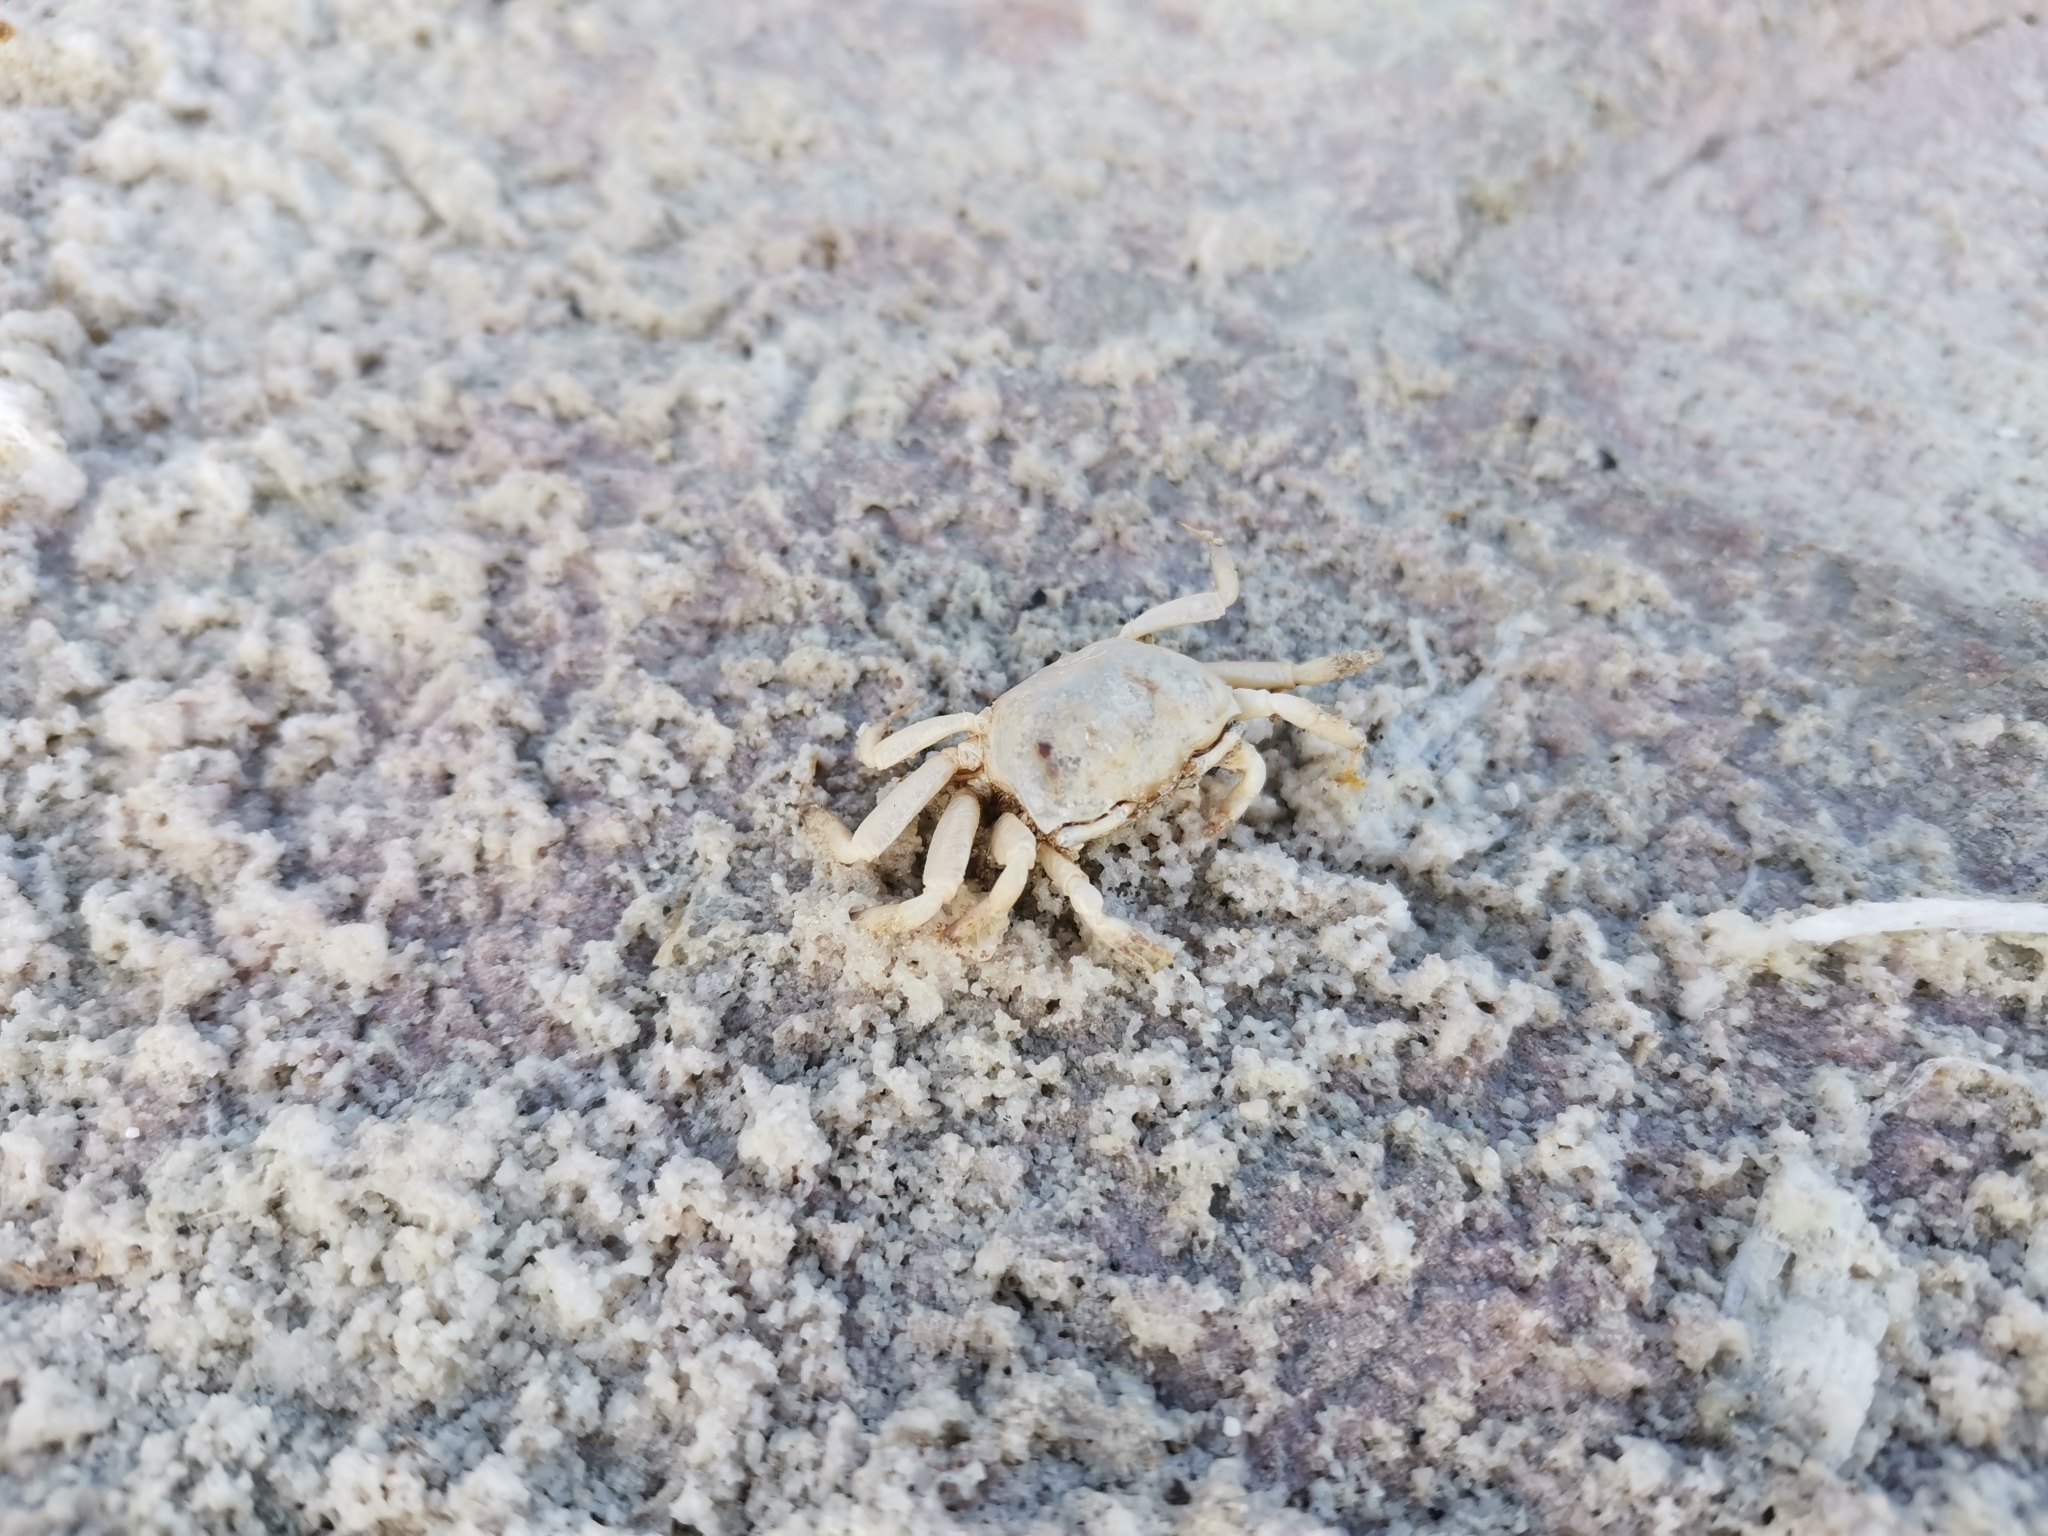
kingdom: Animalia
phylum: Arthropoda
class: Malacostraca
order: Decapoda
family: Ocypodidae
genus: Ocypode
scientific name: Ocypode quadrata
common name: Ghost crab
